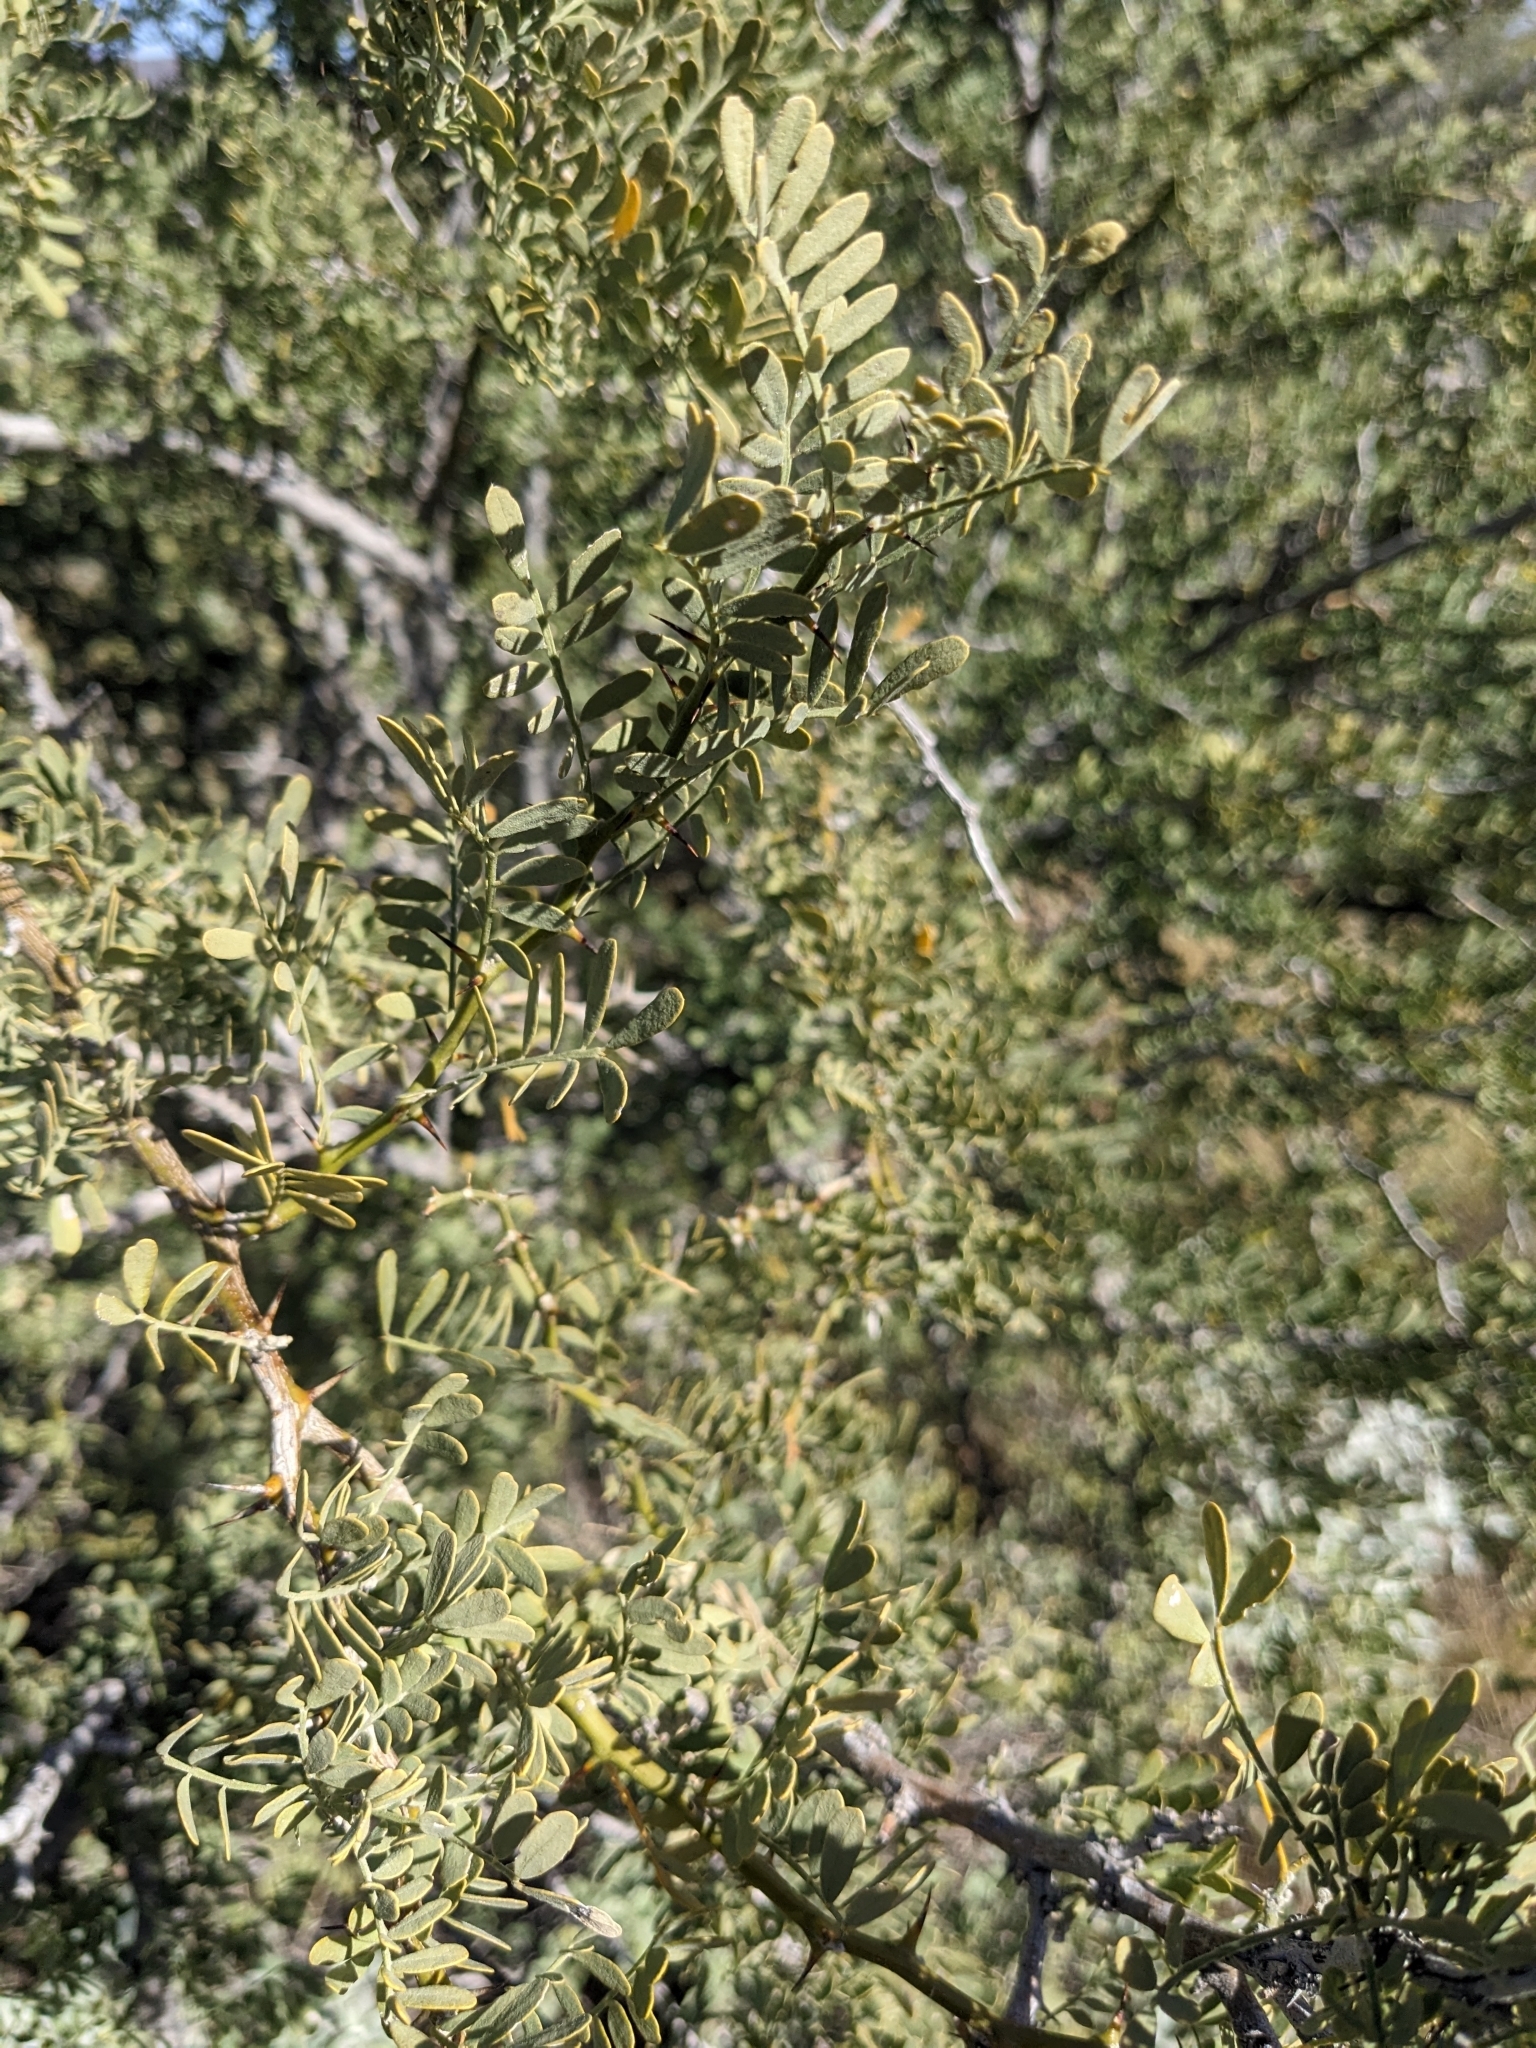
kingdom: Plantae
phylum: Tracheophyta
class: Magnoliopsida
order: Fabales
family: Fabaceae
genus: Olneya
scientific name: Olneya tesota
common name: Desert ironwood
